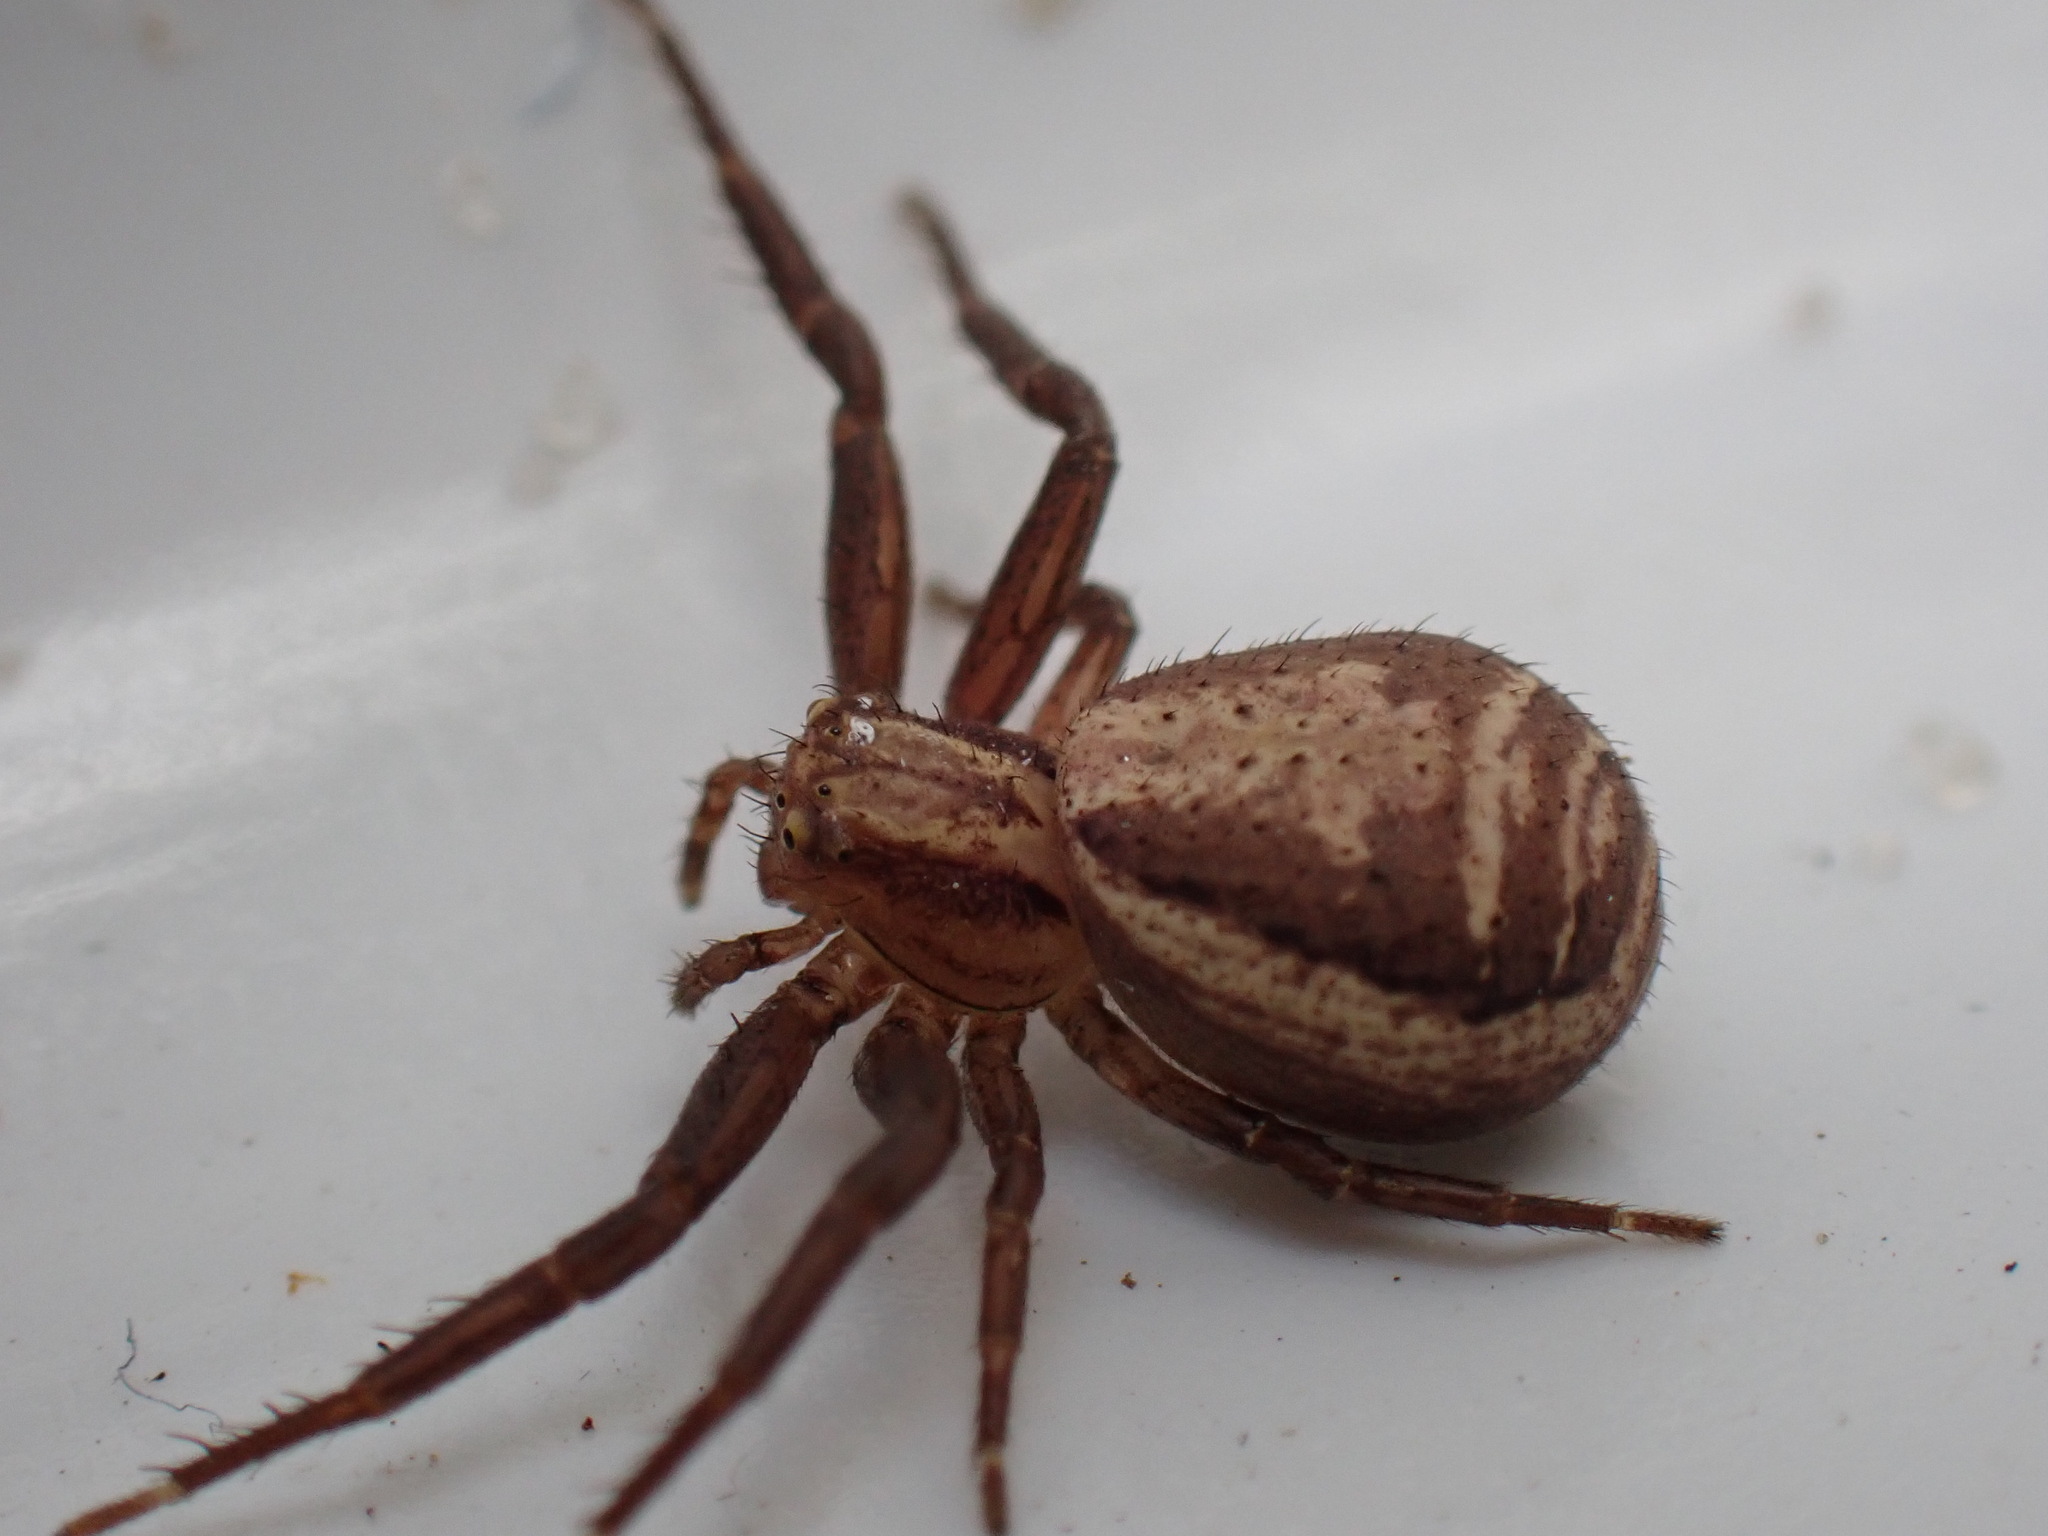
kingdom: Animalia
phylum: Arthropoda
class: Arachnida
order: Araneae
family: Thomisidae
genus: Xysticus
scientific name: Xysticus ulmi
